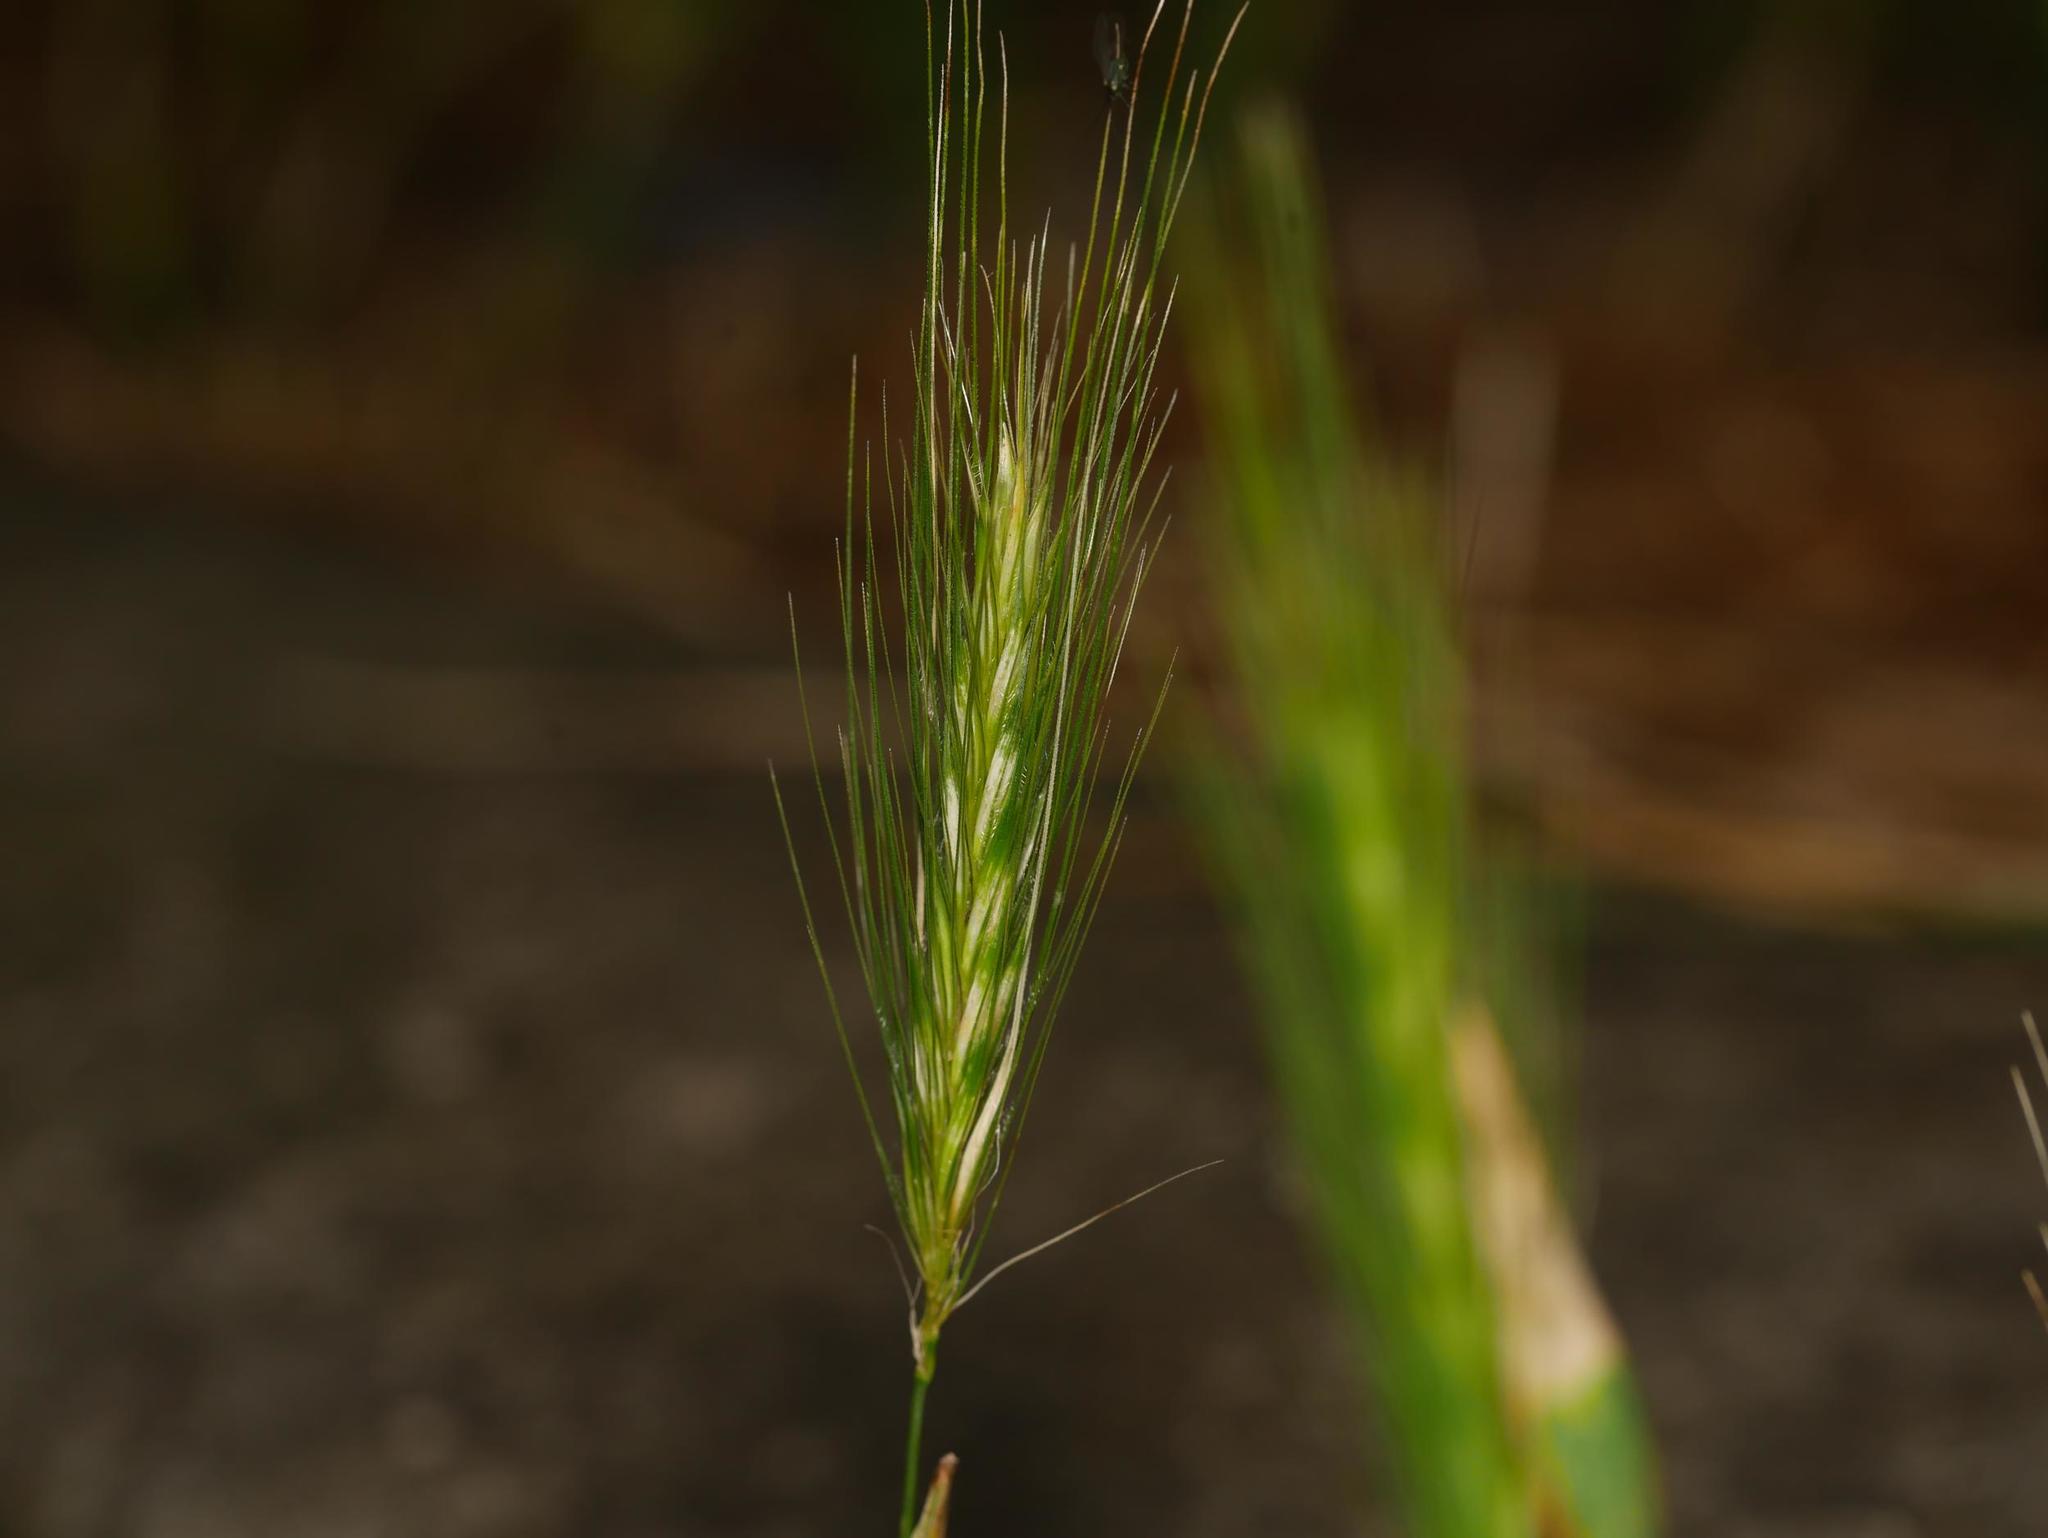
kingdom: Plantae
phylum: Tracheophyta
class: Liliopsida
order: Poales
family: Poaceae
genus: Hordeum
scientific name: Hordeum murinum
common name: Wall barley
